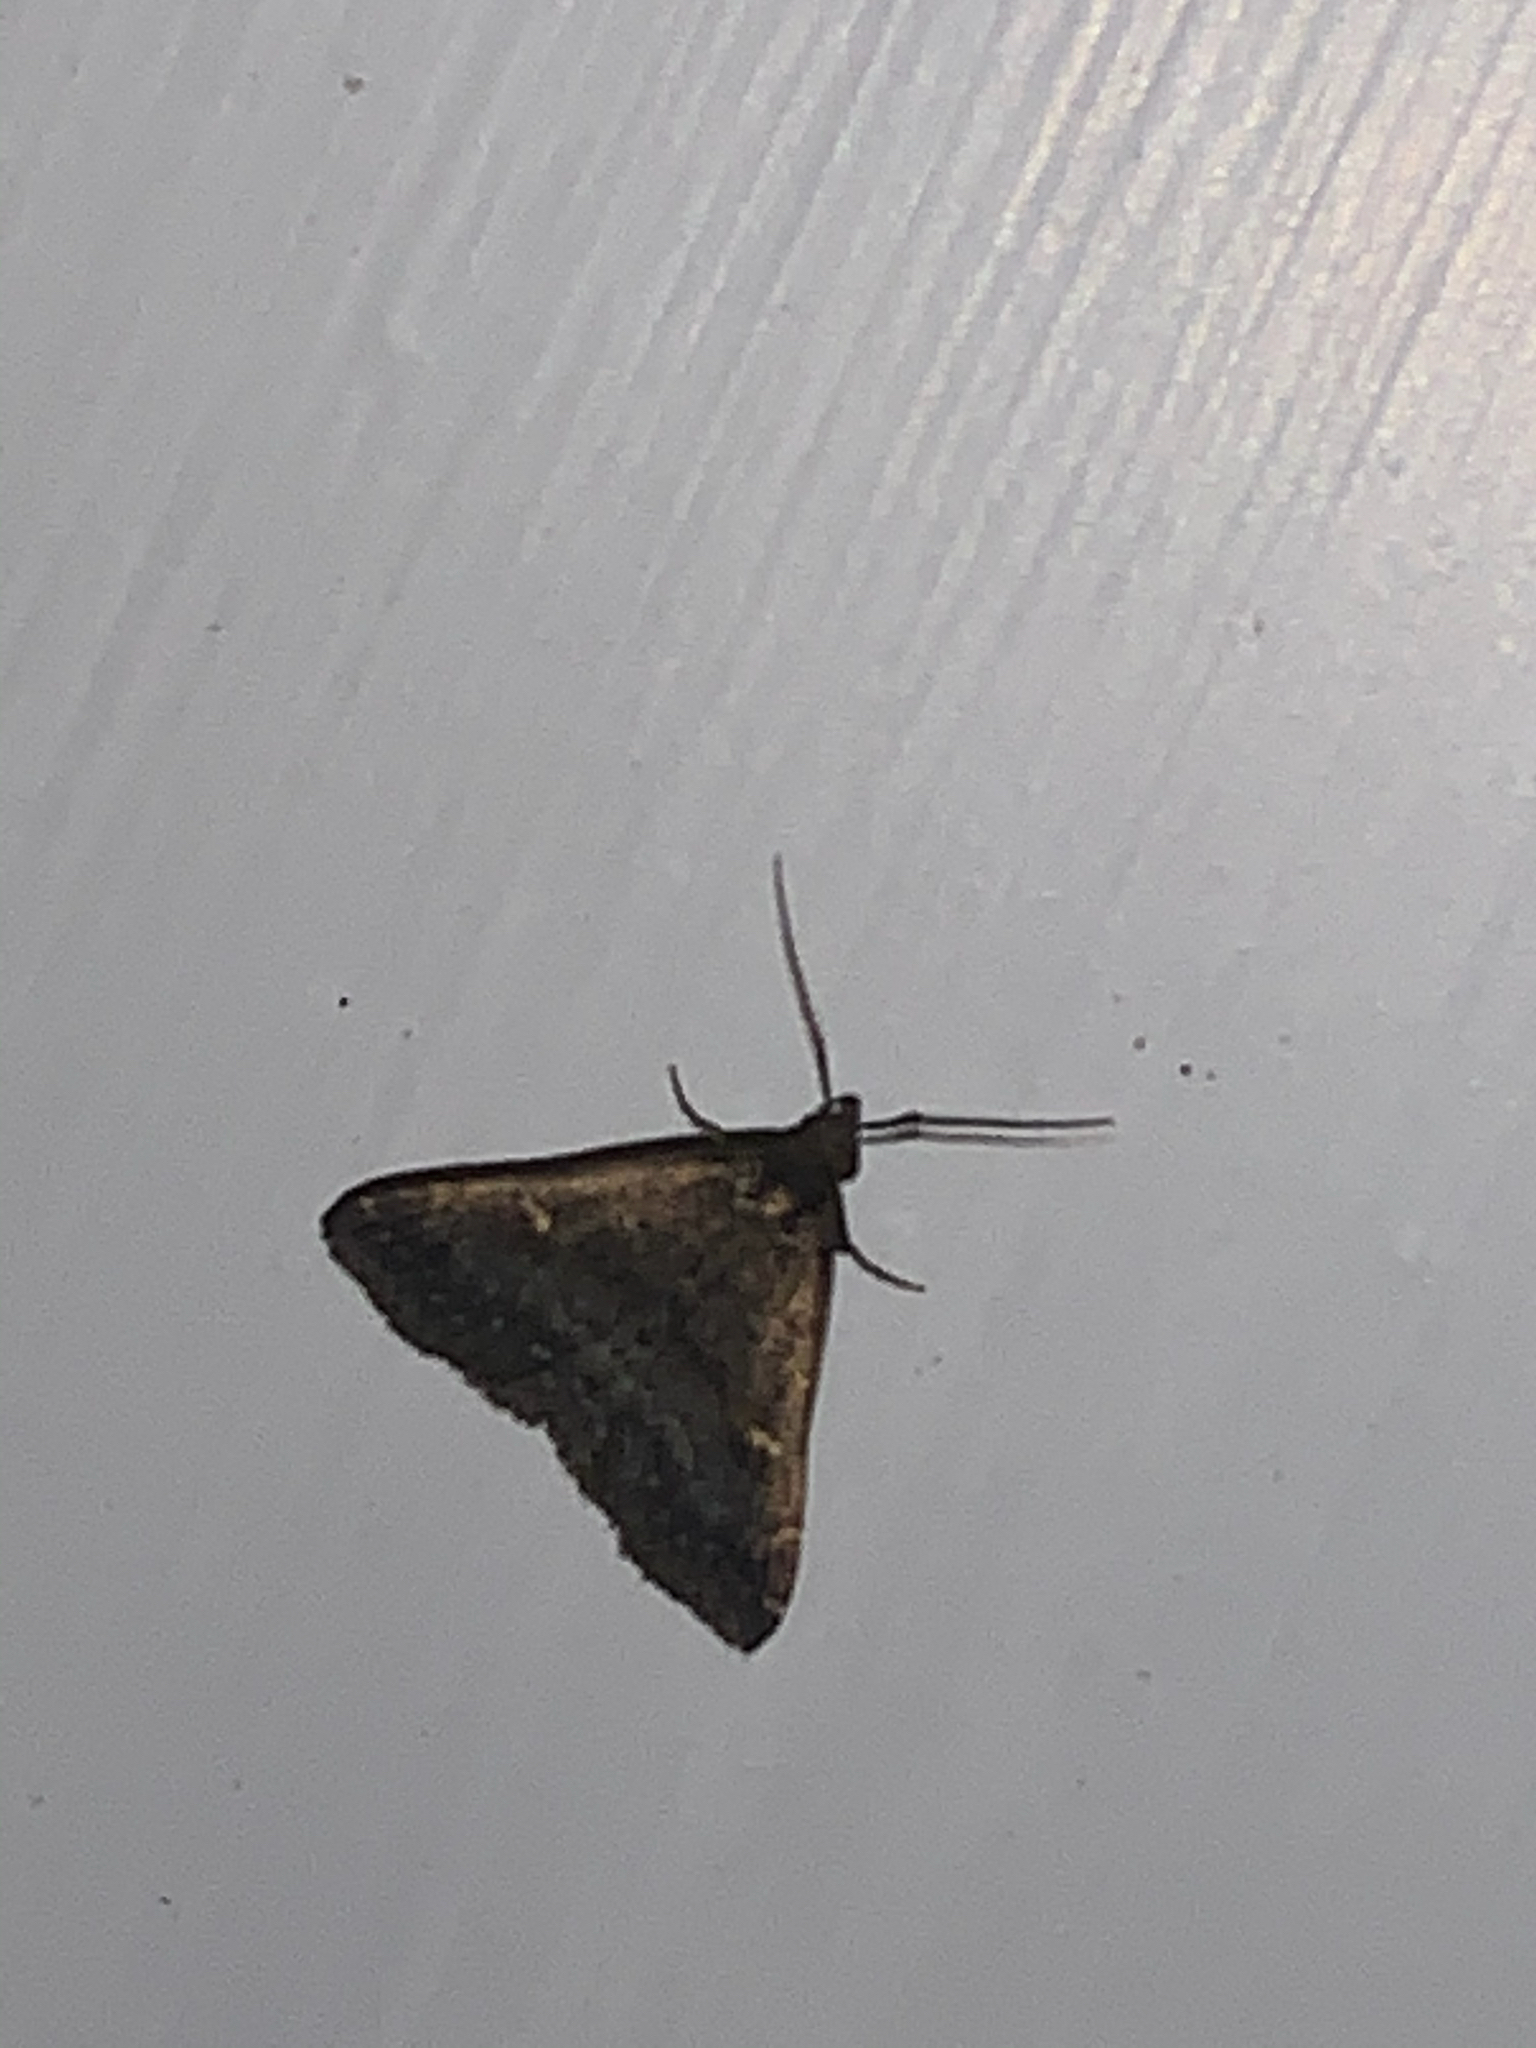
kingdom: Animalia
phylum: Arthropoda
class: Insecta
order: Lepidoptera
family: Erebidae
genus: Tetanolita
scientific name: Tetanolita mynesalis
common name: Smoky tetanolita moth
